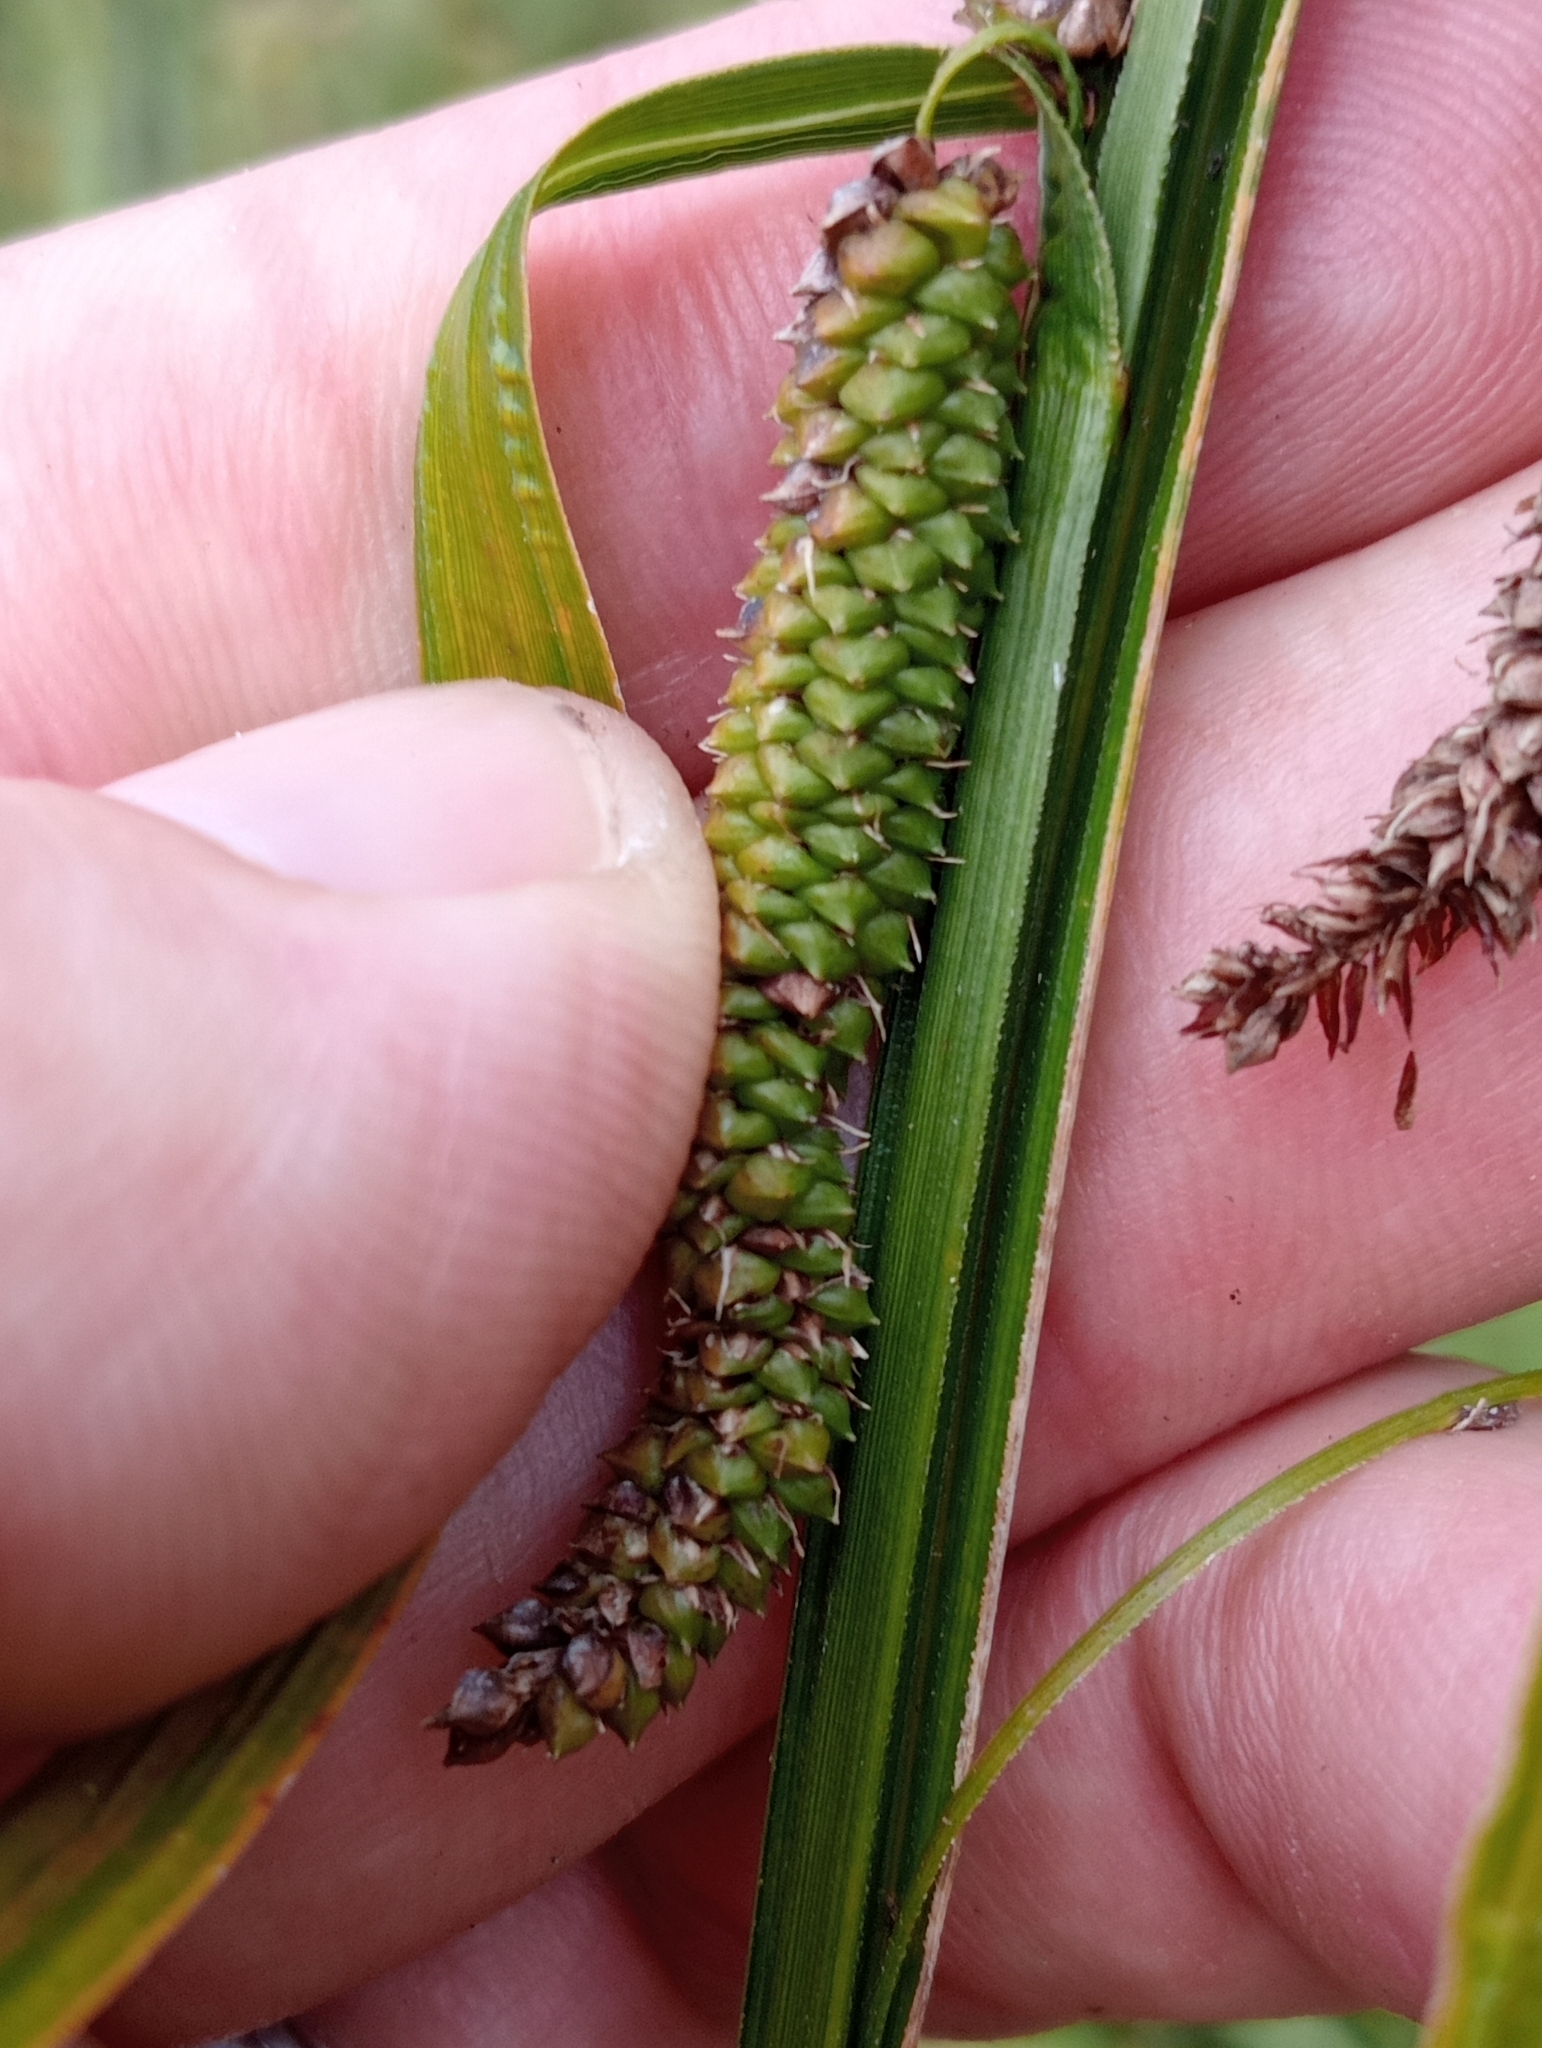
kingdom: Plantae
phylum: Tracheophyta
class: Liliopsida
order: Poales
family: Cyperaceae
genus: Carex
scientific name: Carex geminata
